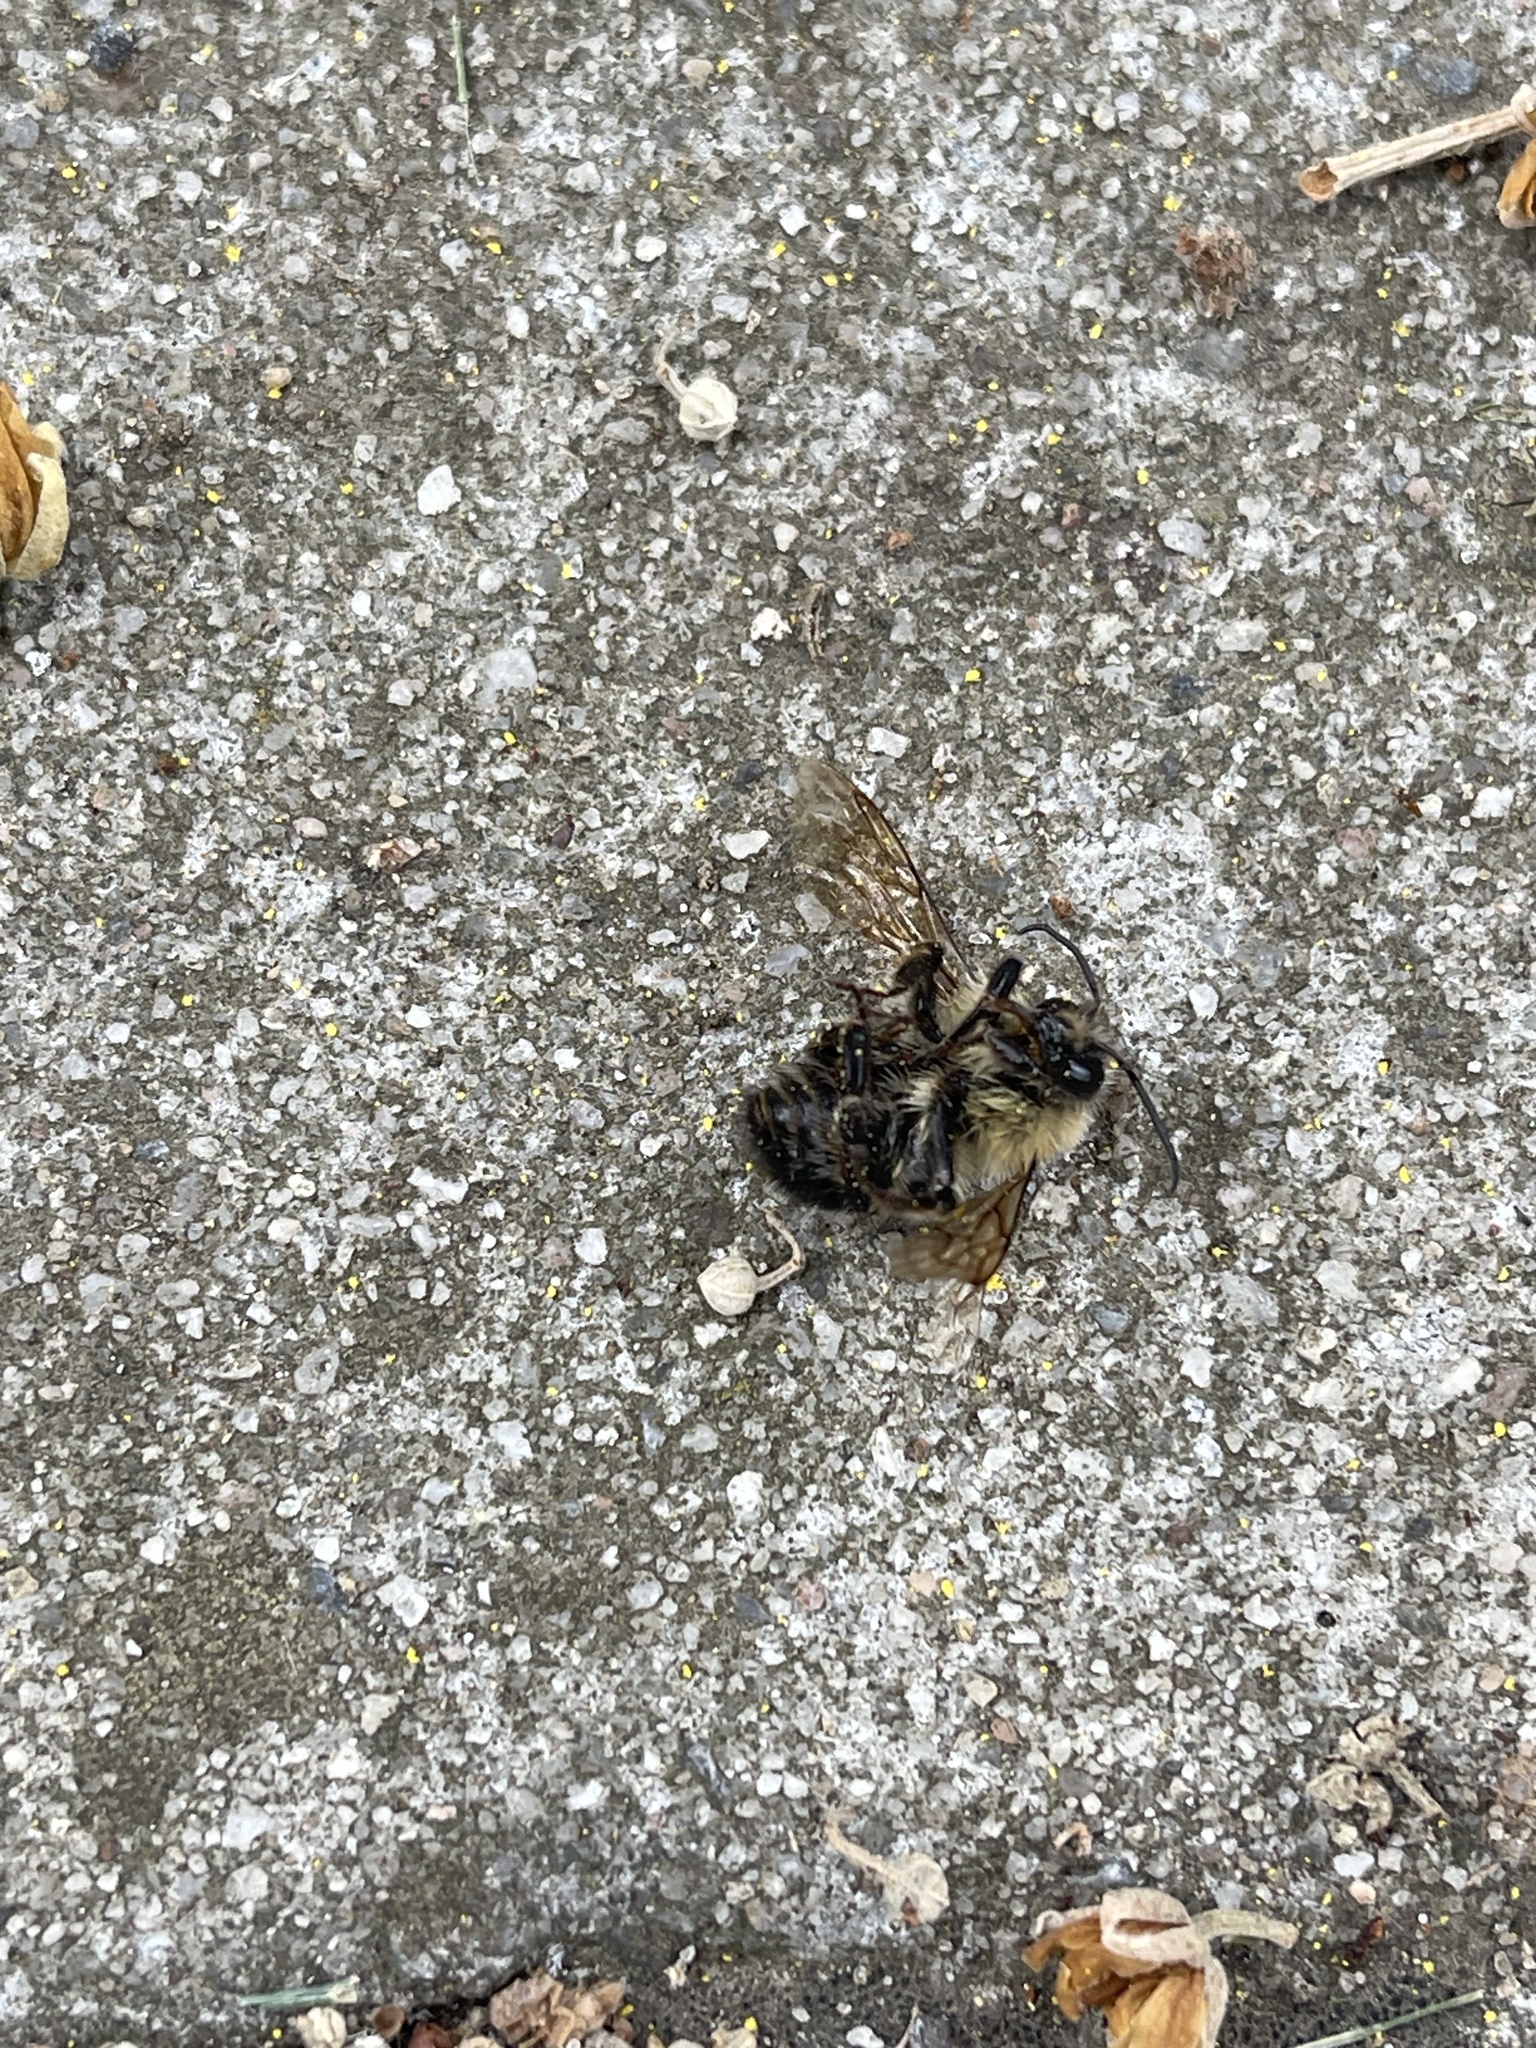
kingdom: Animalia
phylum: Arthropoda
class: Insecta
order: Hymenoptera
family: Apidae
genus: Bombus
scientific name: Bombus bimaculatus
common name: Two-spotted bumble bee
